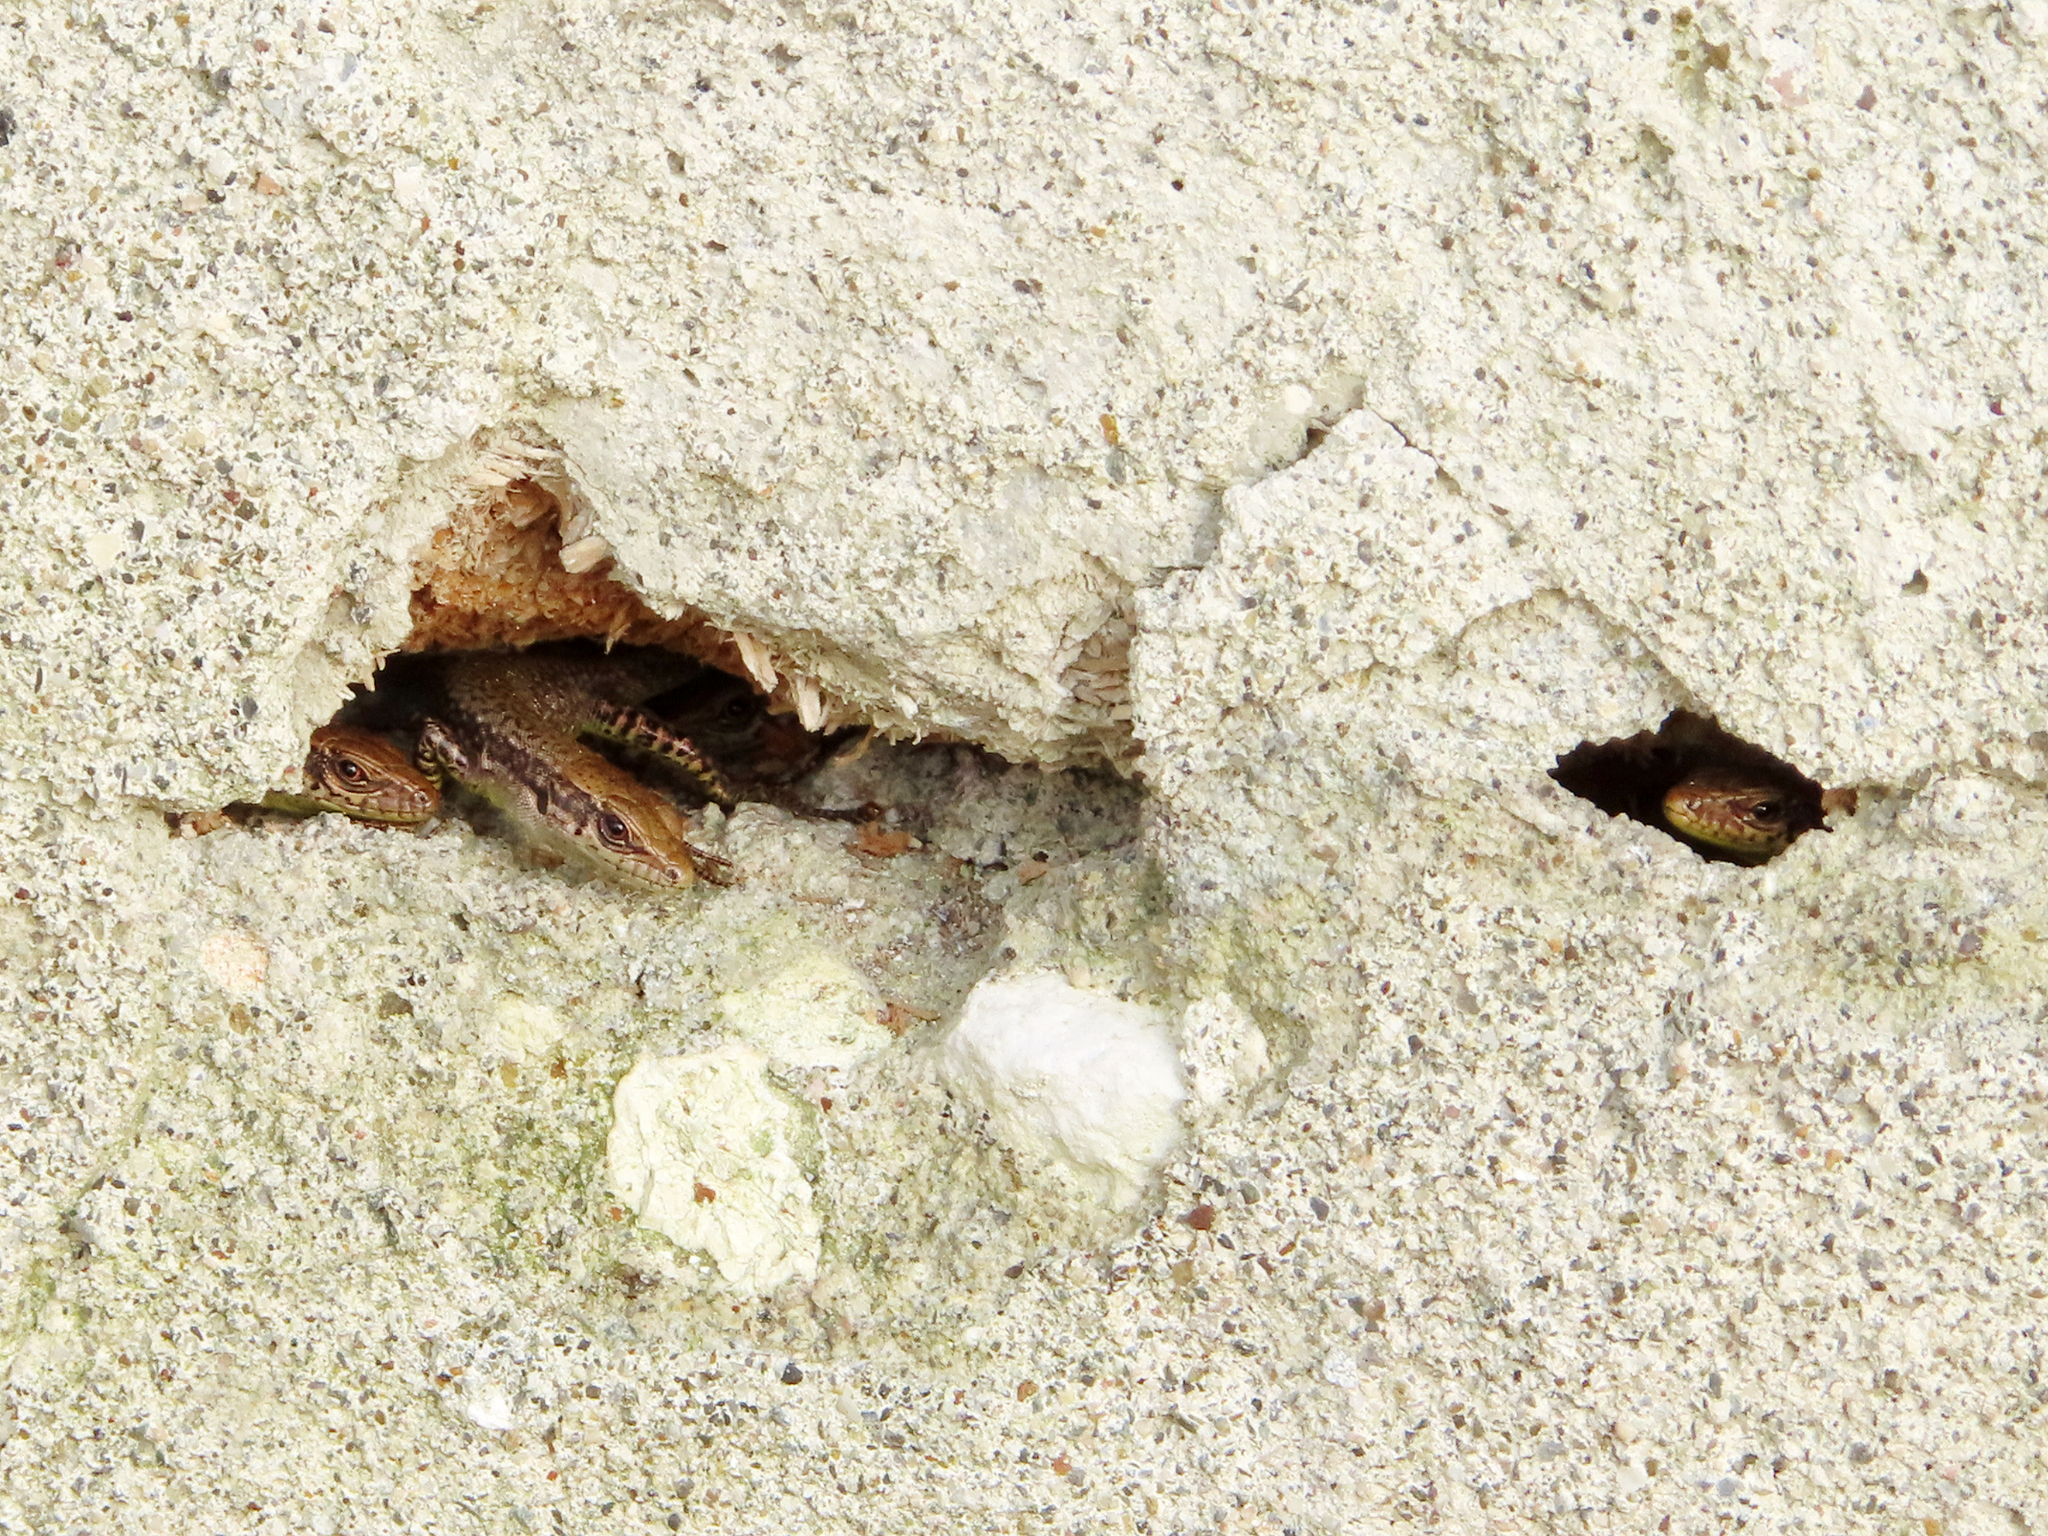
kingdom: Animalia
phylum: Chordata
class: Squamata
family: Lacertidae
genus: Darevskia
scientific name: Darevskia rudis
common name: Spiny-tailed lizard
